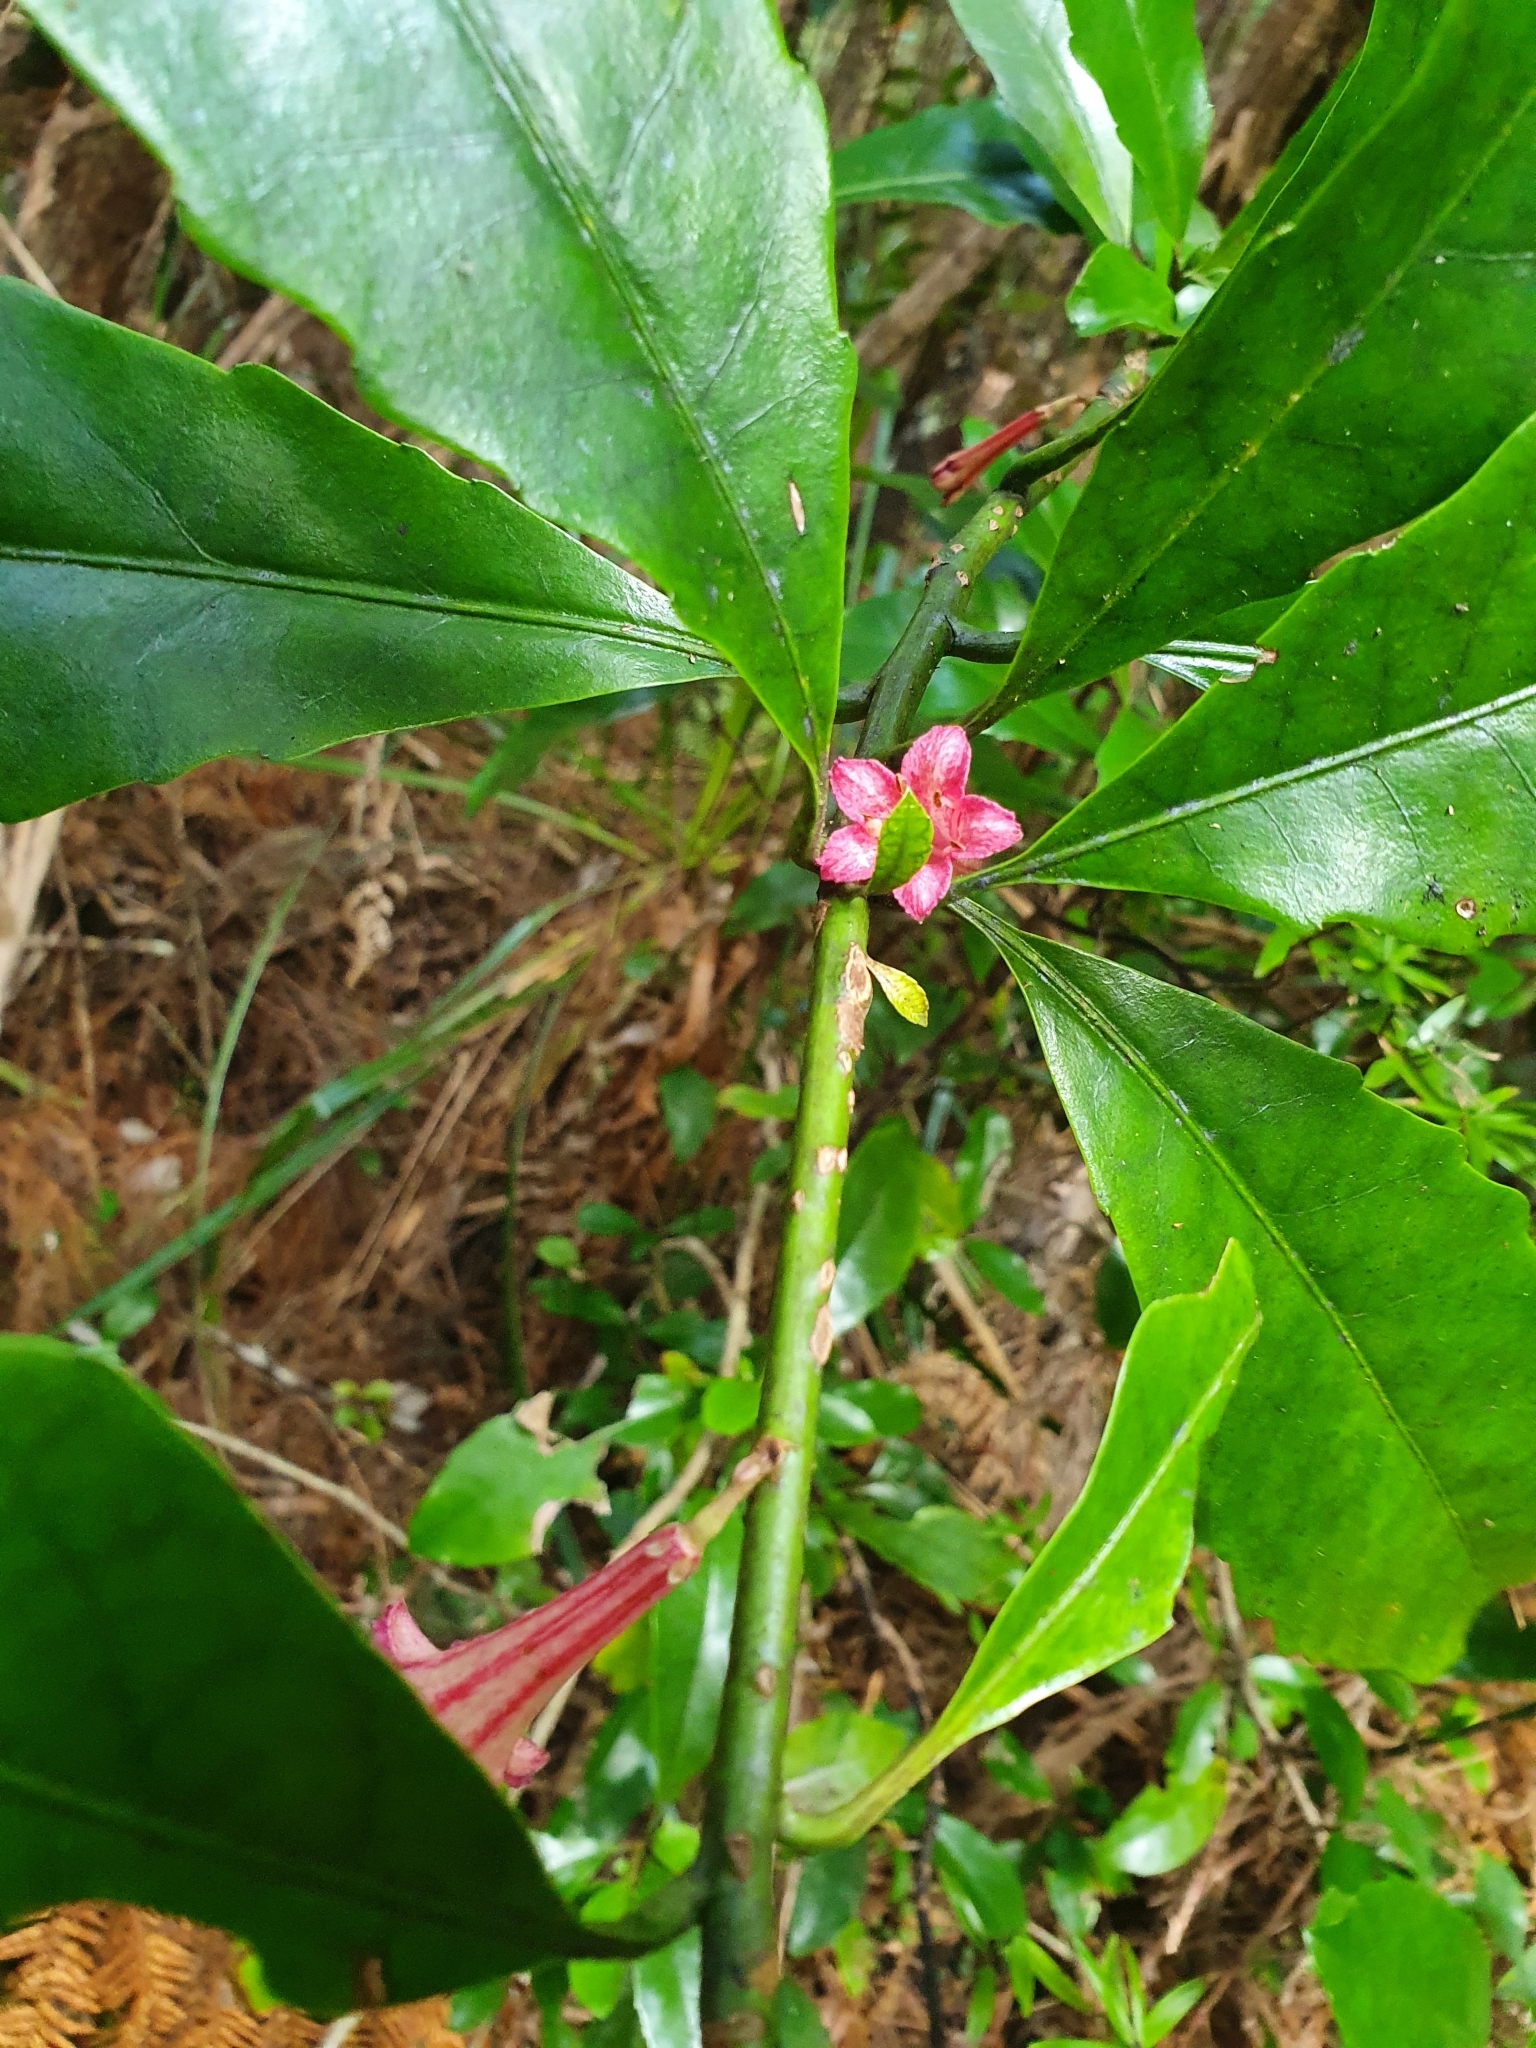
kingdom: Plantae
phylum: Tracheophyta
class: Magnoliopsida
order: Asterales
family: Alseuosmiaceae
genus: Alseuosmia
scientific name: Alseuosmia macrophylla
